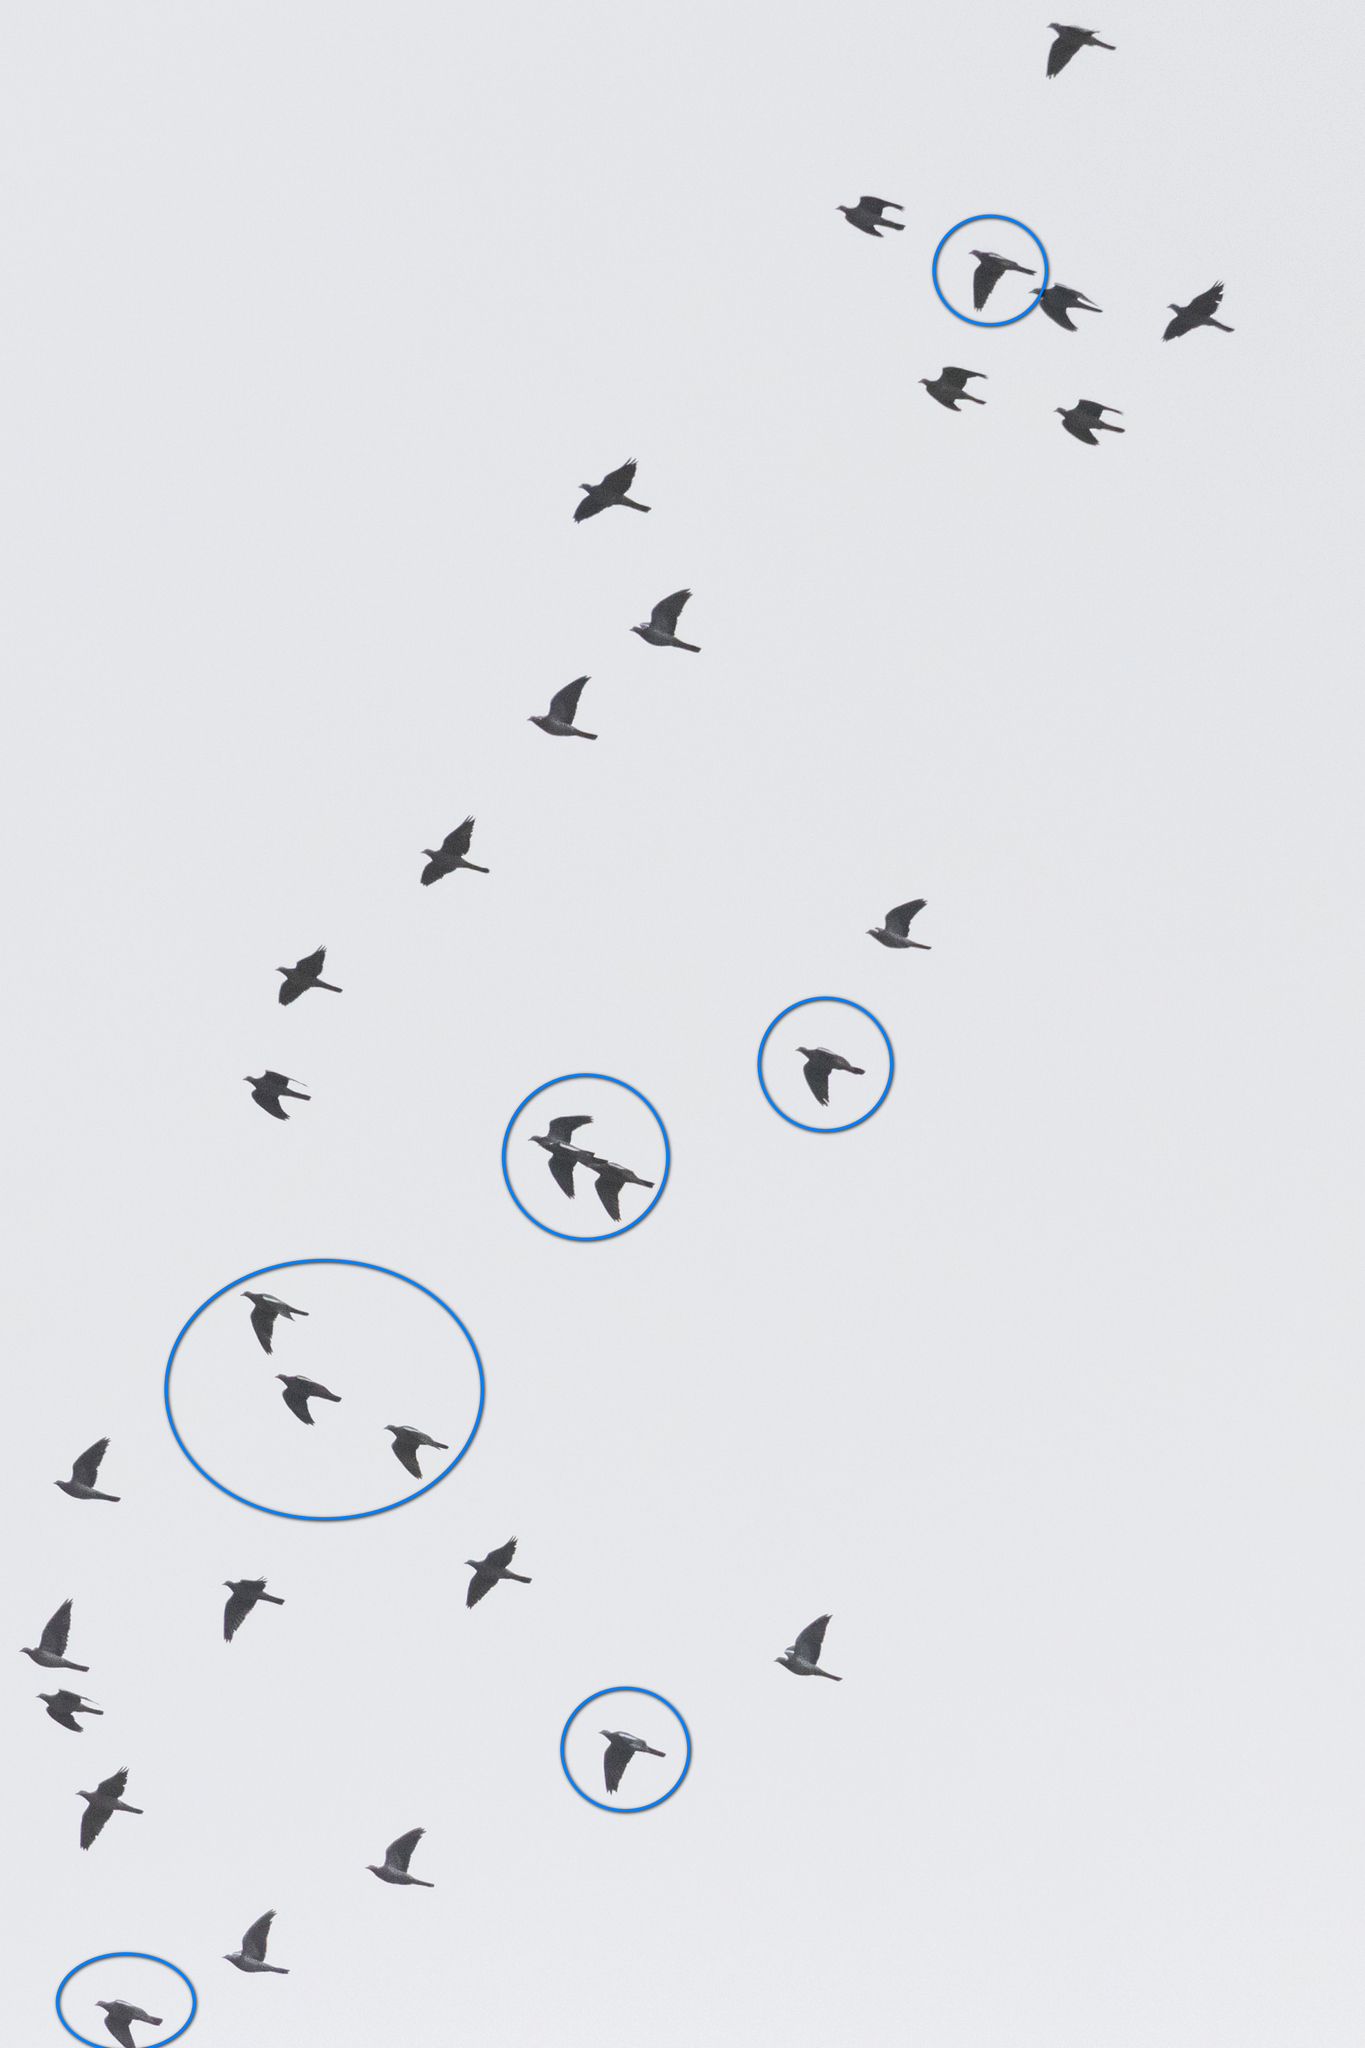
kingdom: Animalia
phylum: Chordata
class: Aves
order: Columbiformes
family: Columbidae
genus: Columba
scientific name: Columba palumbus
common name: Common wood pigeon
